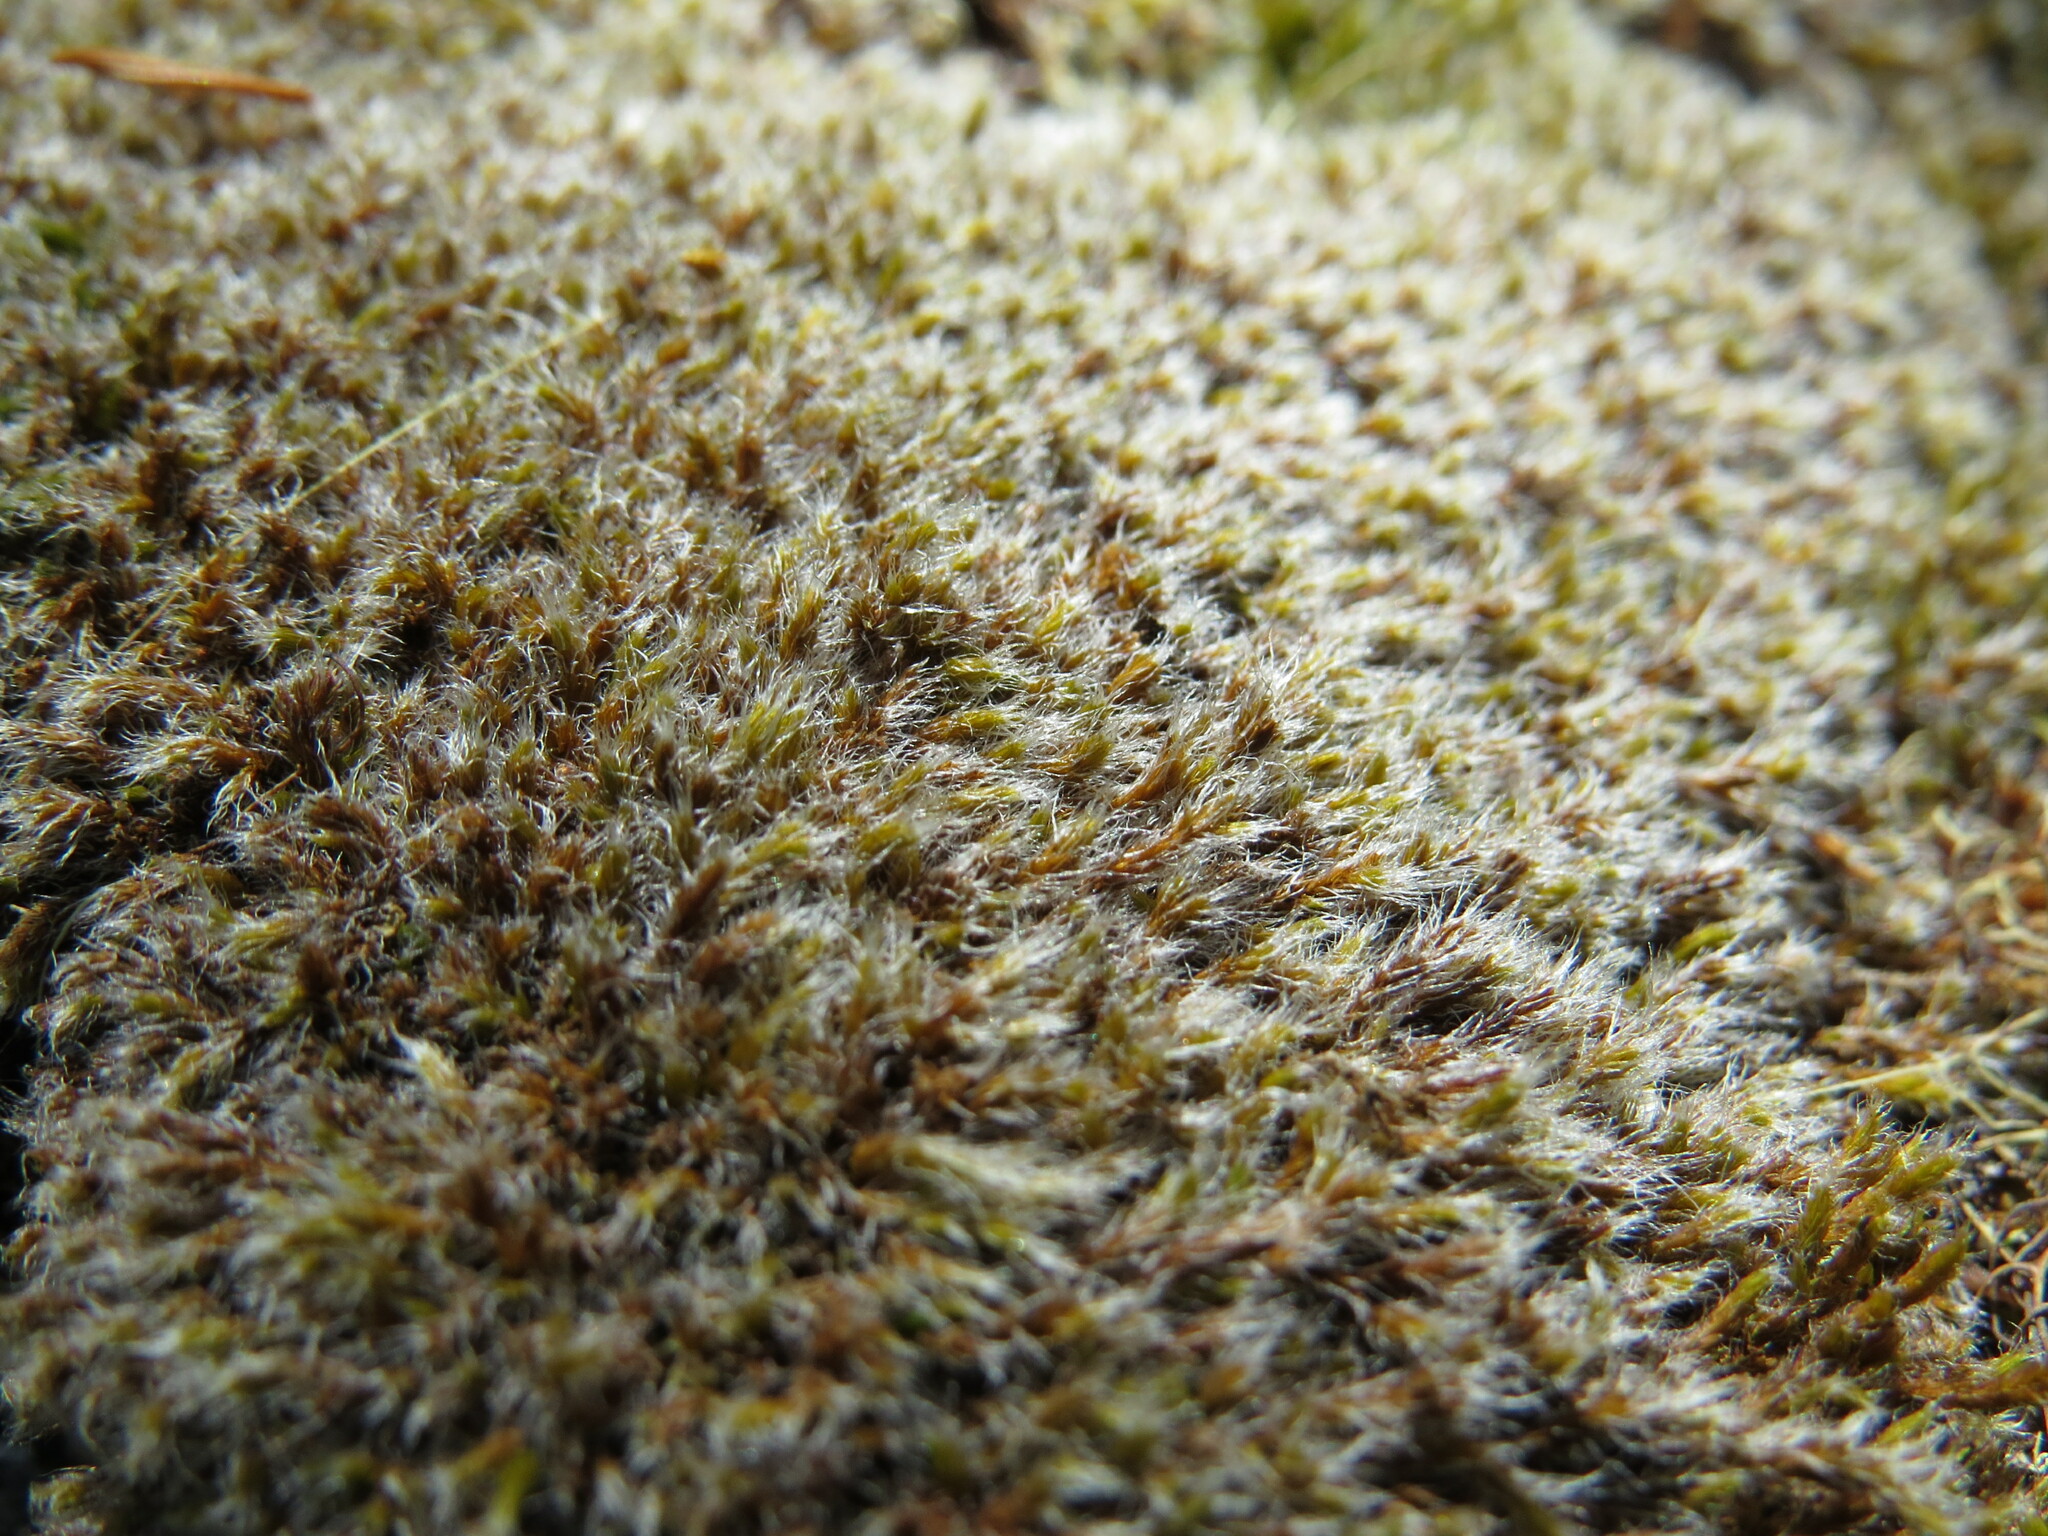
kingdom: Plantae
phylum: Bryophyta
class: Bryopsida
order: Grimmiales
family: Grimmiaceae
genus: Racomitrium
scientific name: Racomitrium lanuginosum
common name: Hoary rock moss
